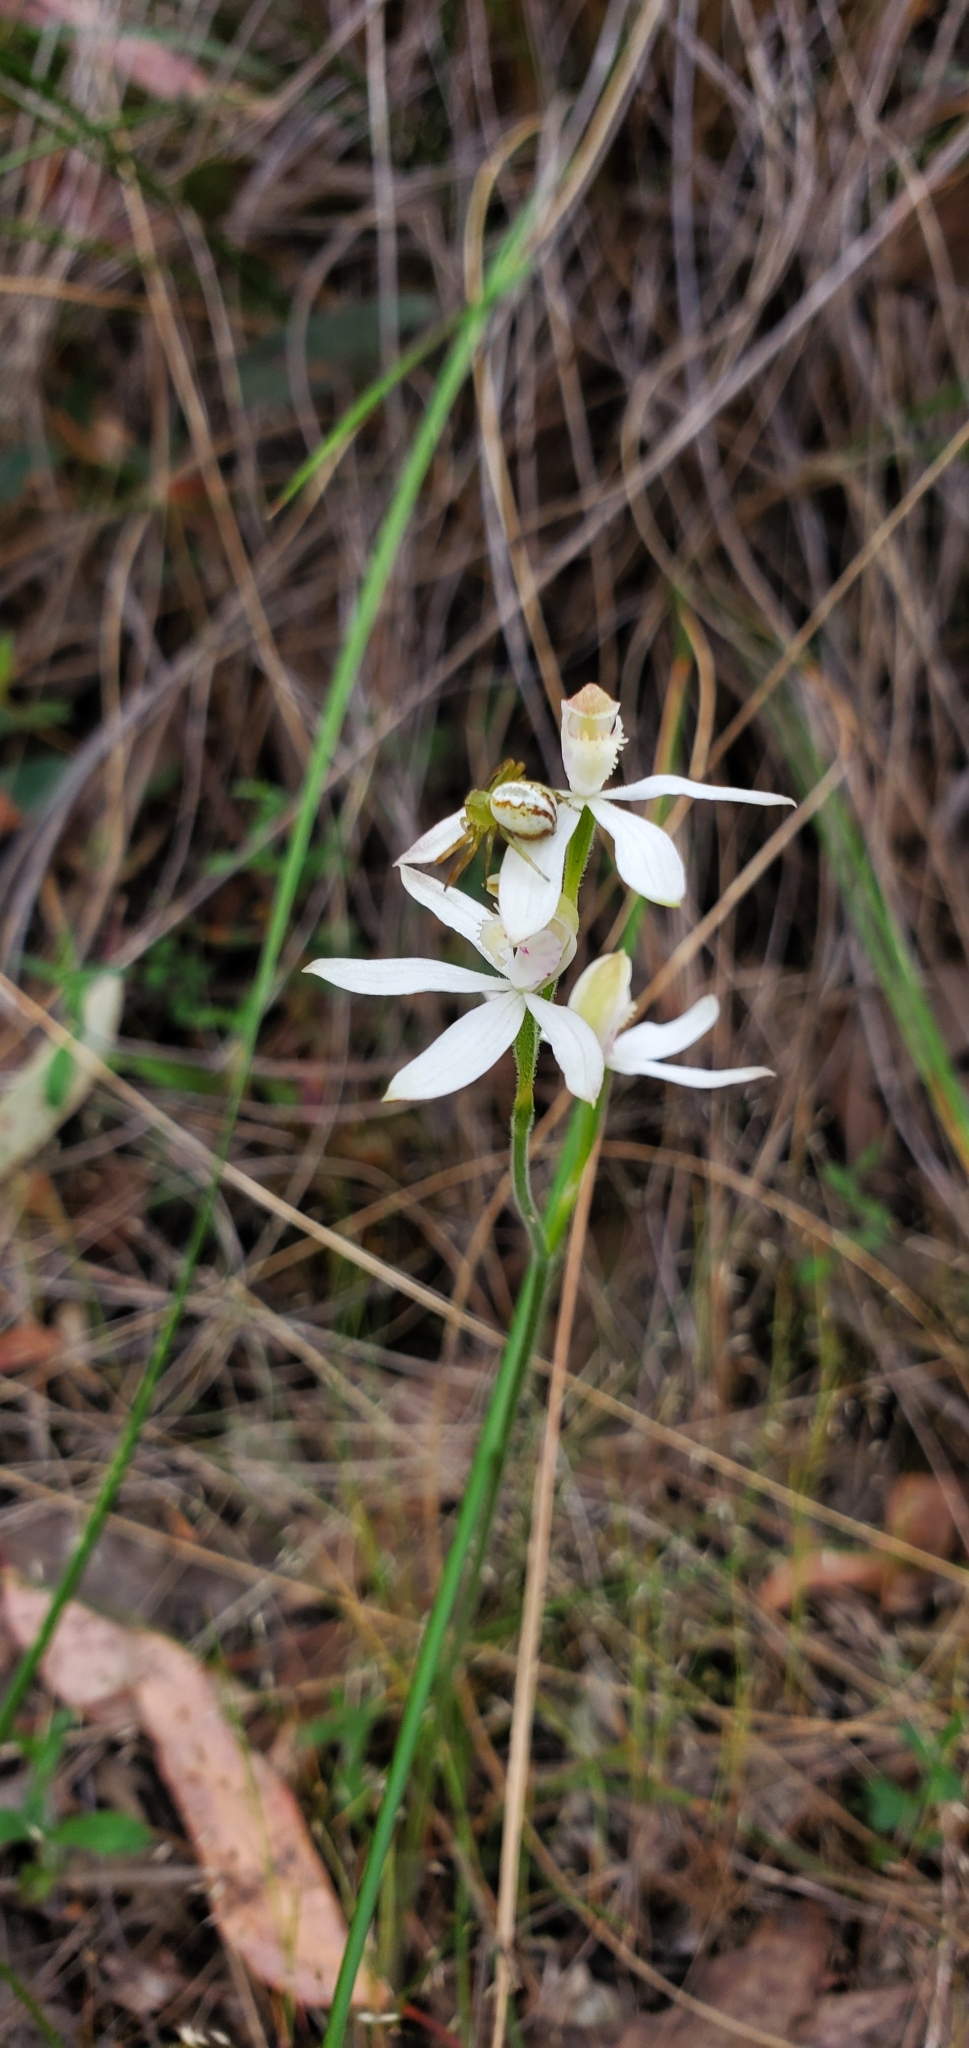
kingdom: Plantae
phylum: Tracheophyta
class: Liliopsida
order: Asparagales
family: Orchidaceae
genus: Caladenia
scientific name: Caladenia moschata
